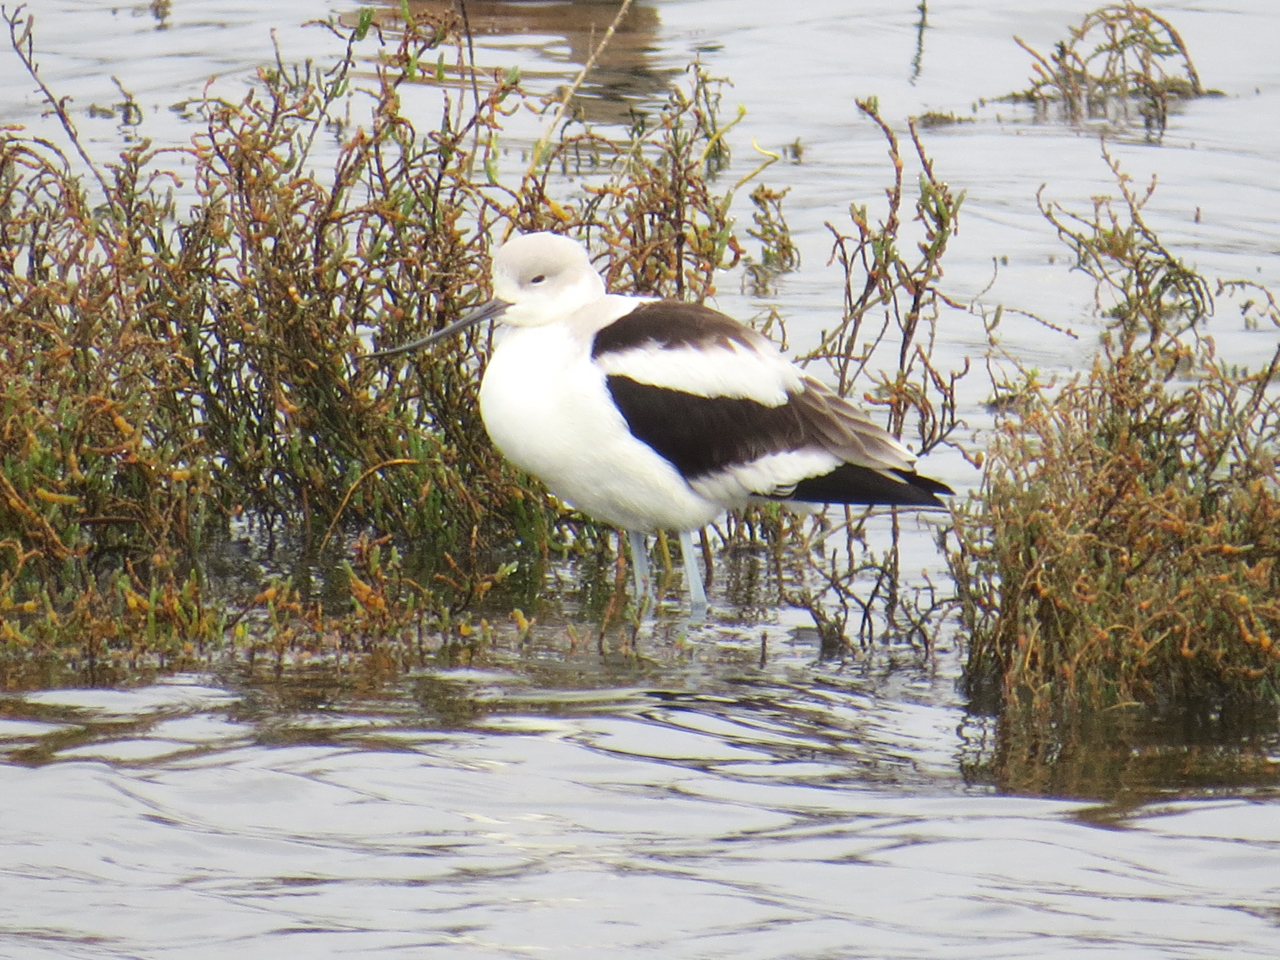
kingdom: Animalia
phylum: Chordata
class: Aves
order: Charadriiformes
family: Recurvirostridae
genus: Recurvirostra
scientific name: Recurvirostra americana
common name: American avocet
